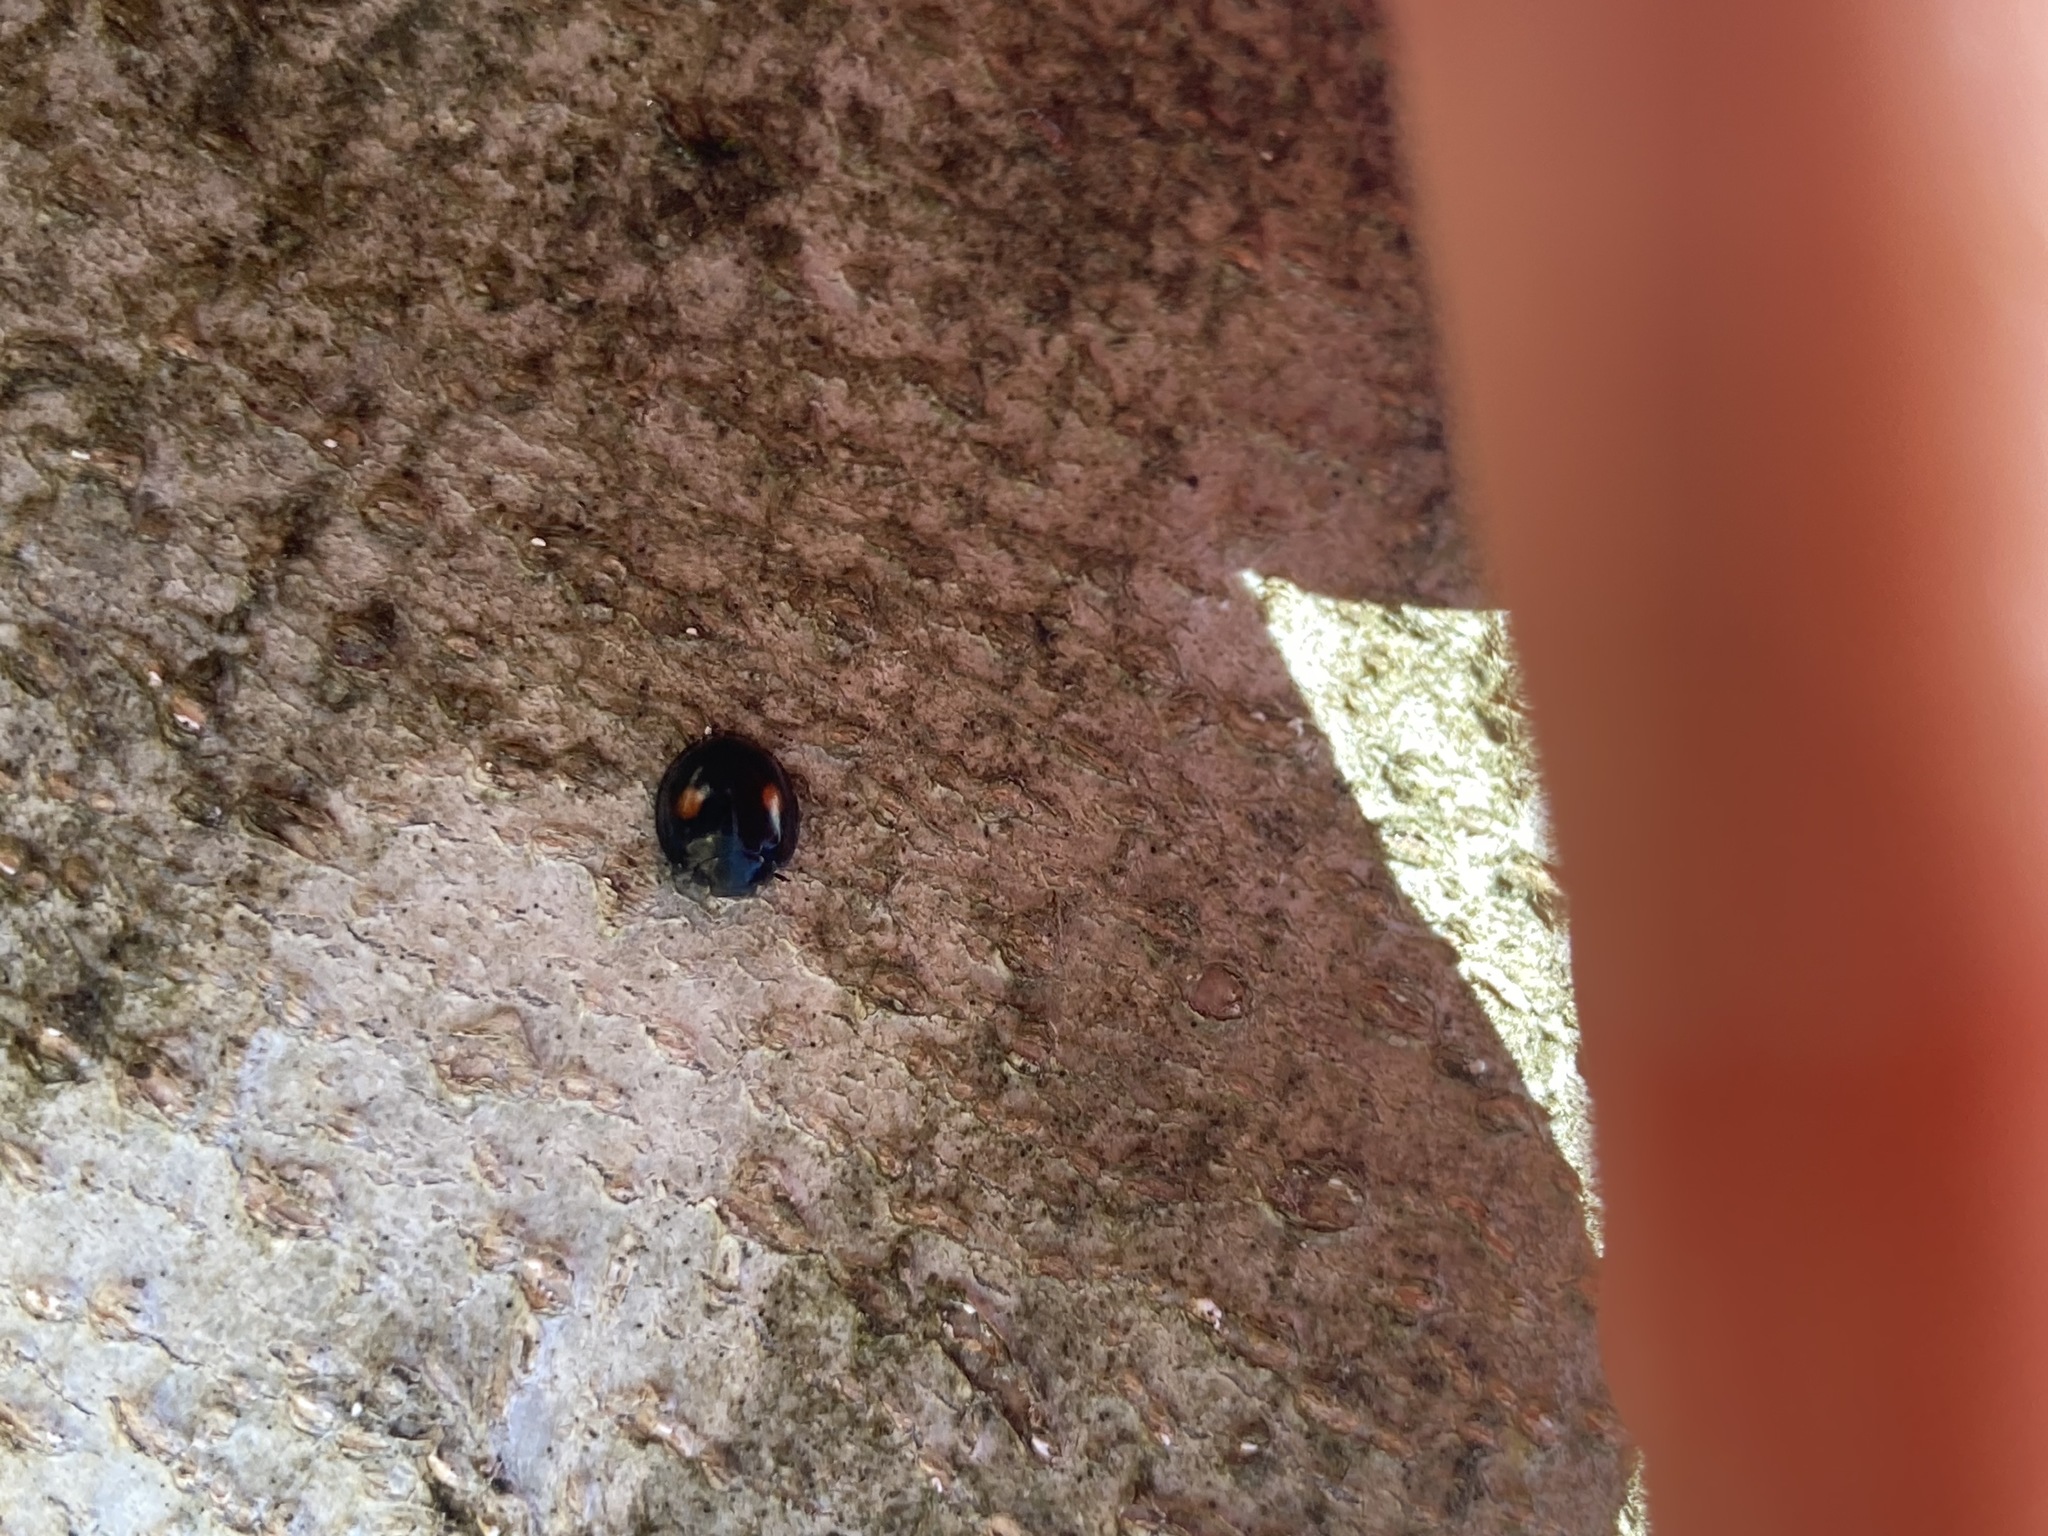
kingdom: Animalia
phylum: Arthropoda
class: Insecta
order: Coleoptera
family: Coccinellidae
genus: Chilocorus
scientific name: Chilocorus stigma
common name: Twicestabbed lady beetle
